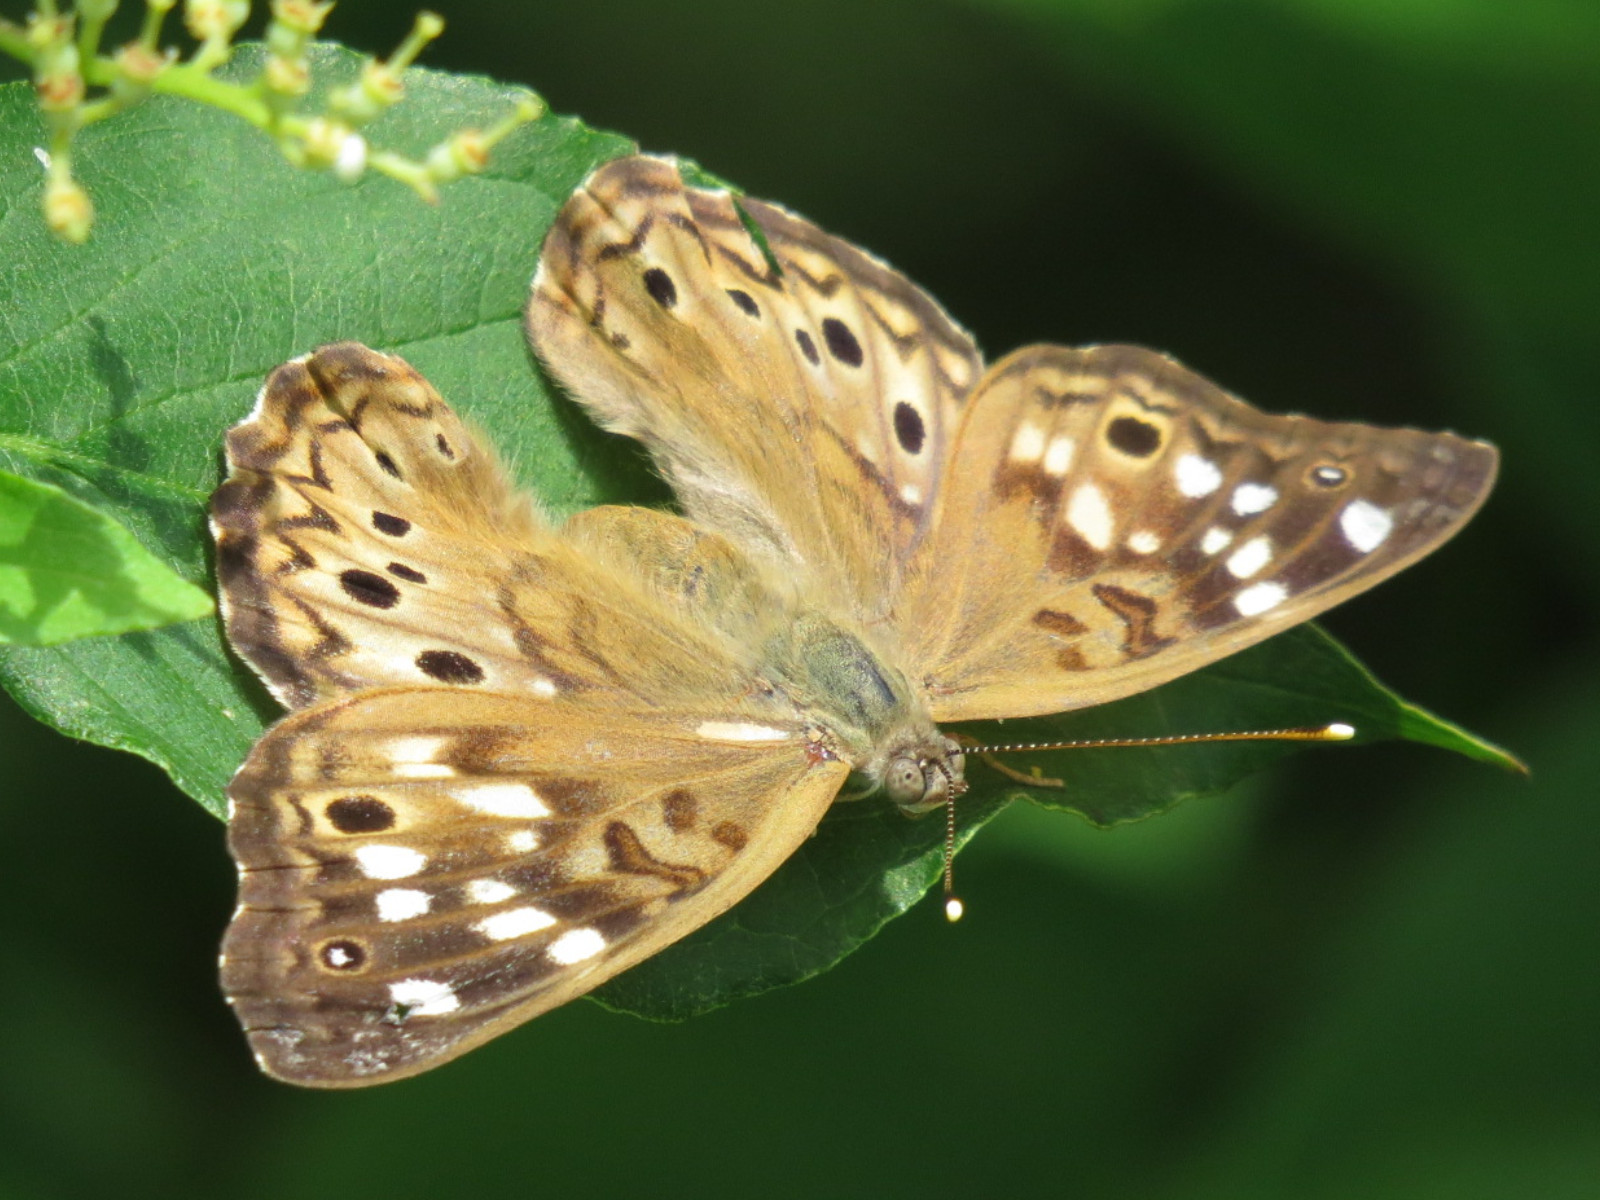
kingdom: Animalia
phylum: Arthropoda
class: Insecta
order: Lepidoptera
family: Nymphalidae
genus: Asterocampa
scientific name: Asterocampa celtis
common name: Hackberry emperor
